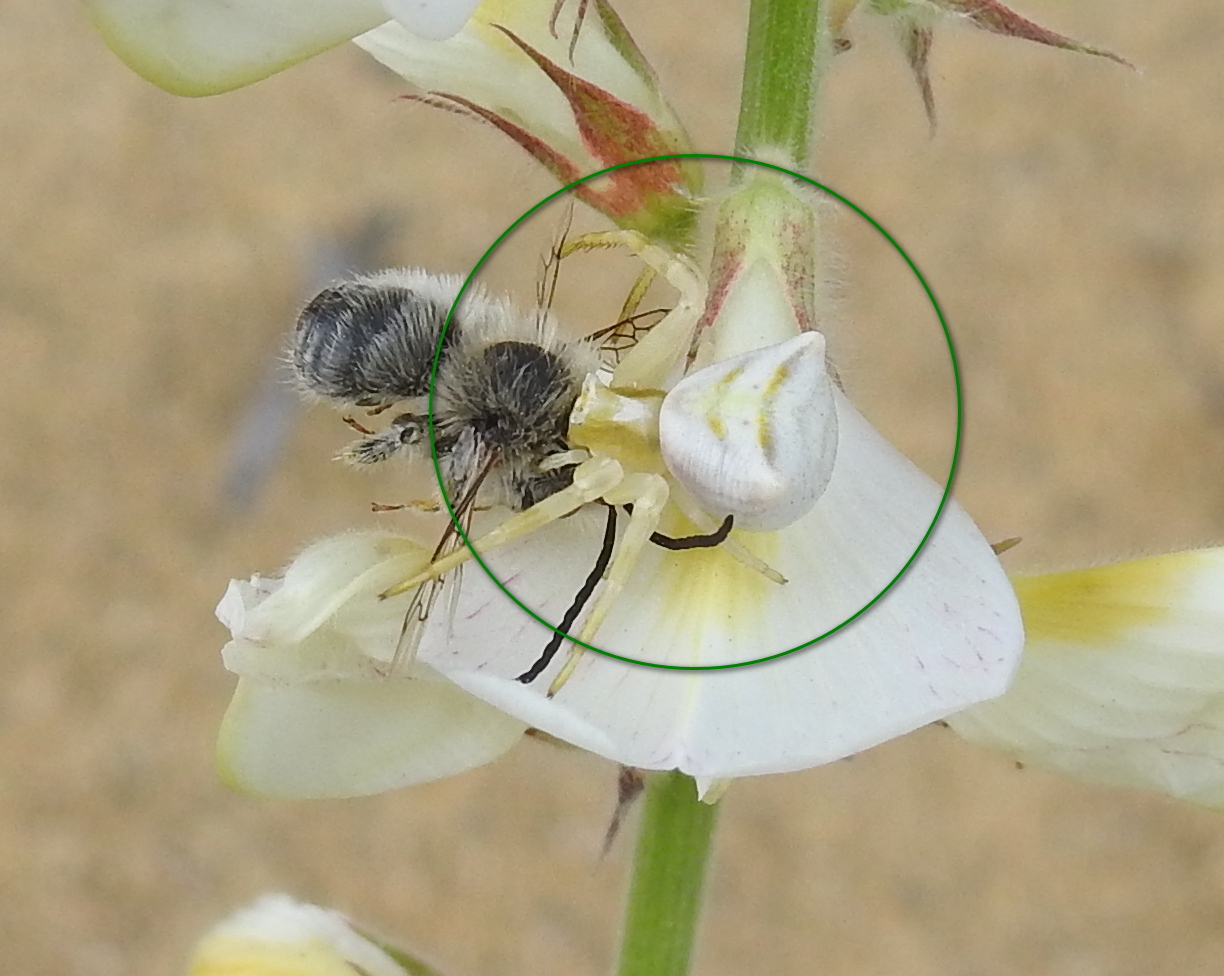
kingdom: Animalia
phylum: Arthropoda
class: Arachnida
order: Araneae
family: Thomisidae
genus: Thomisus
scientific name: Thomisus onustus
